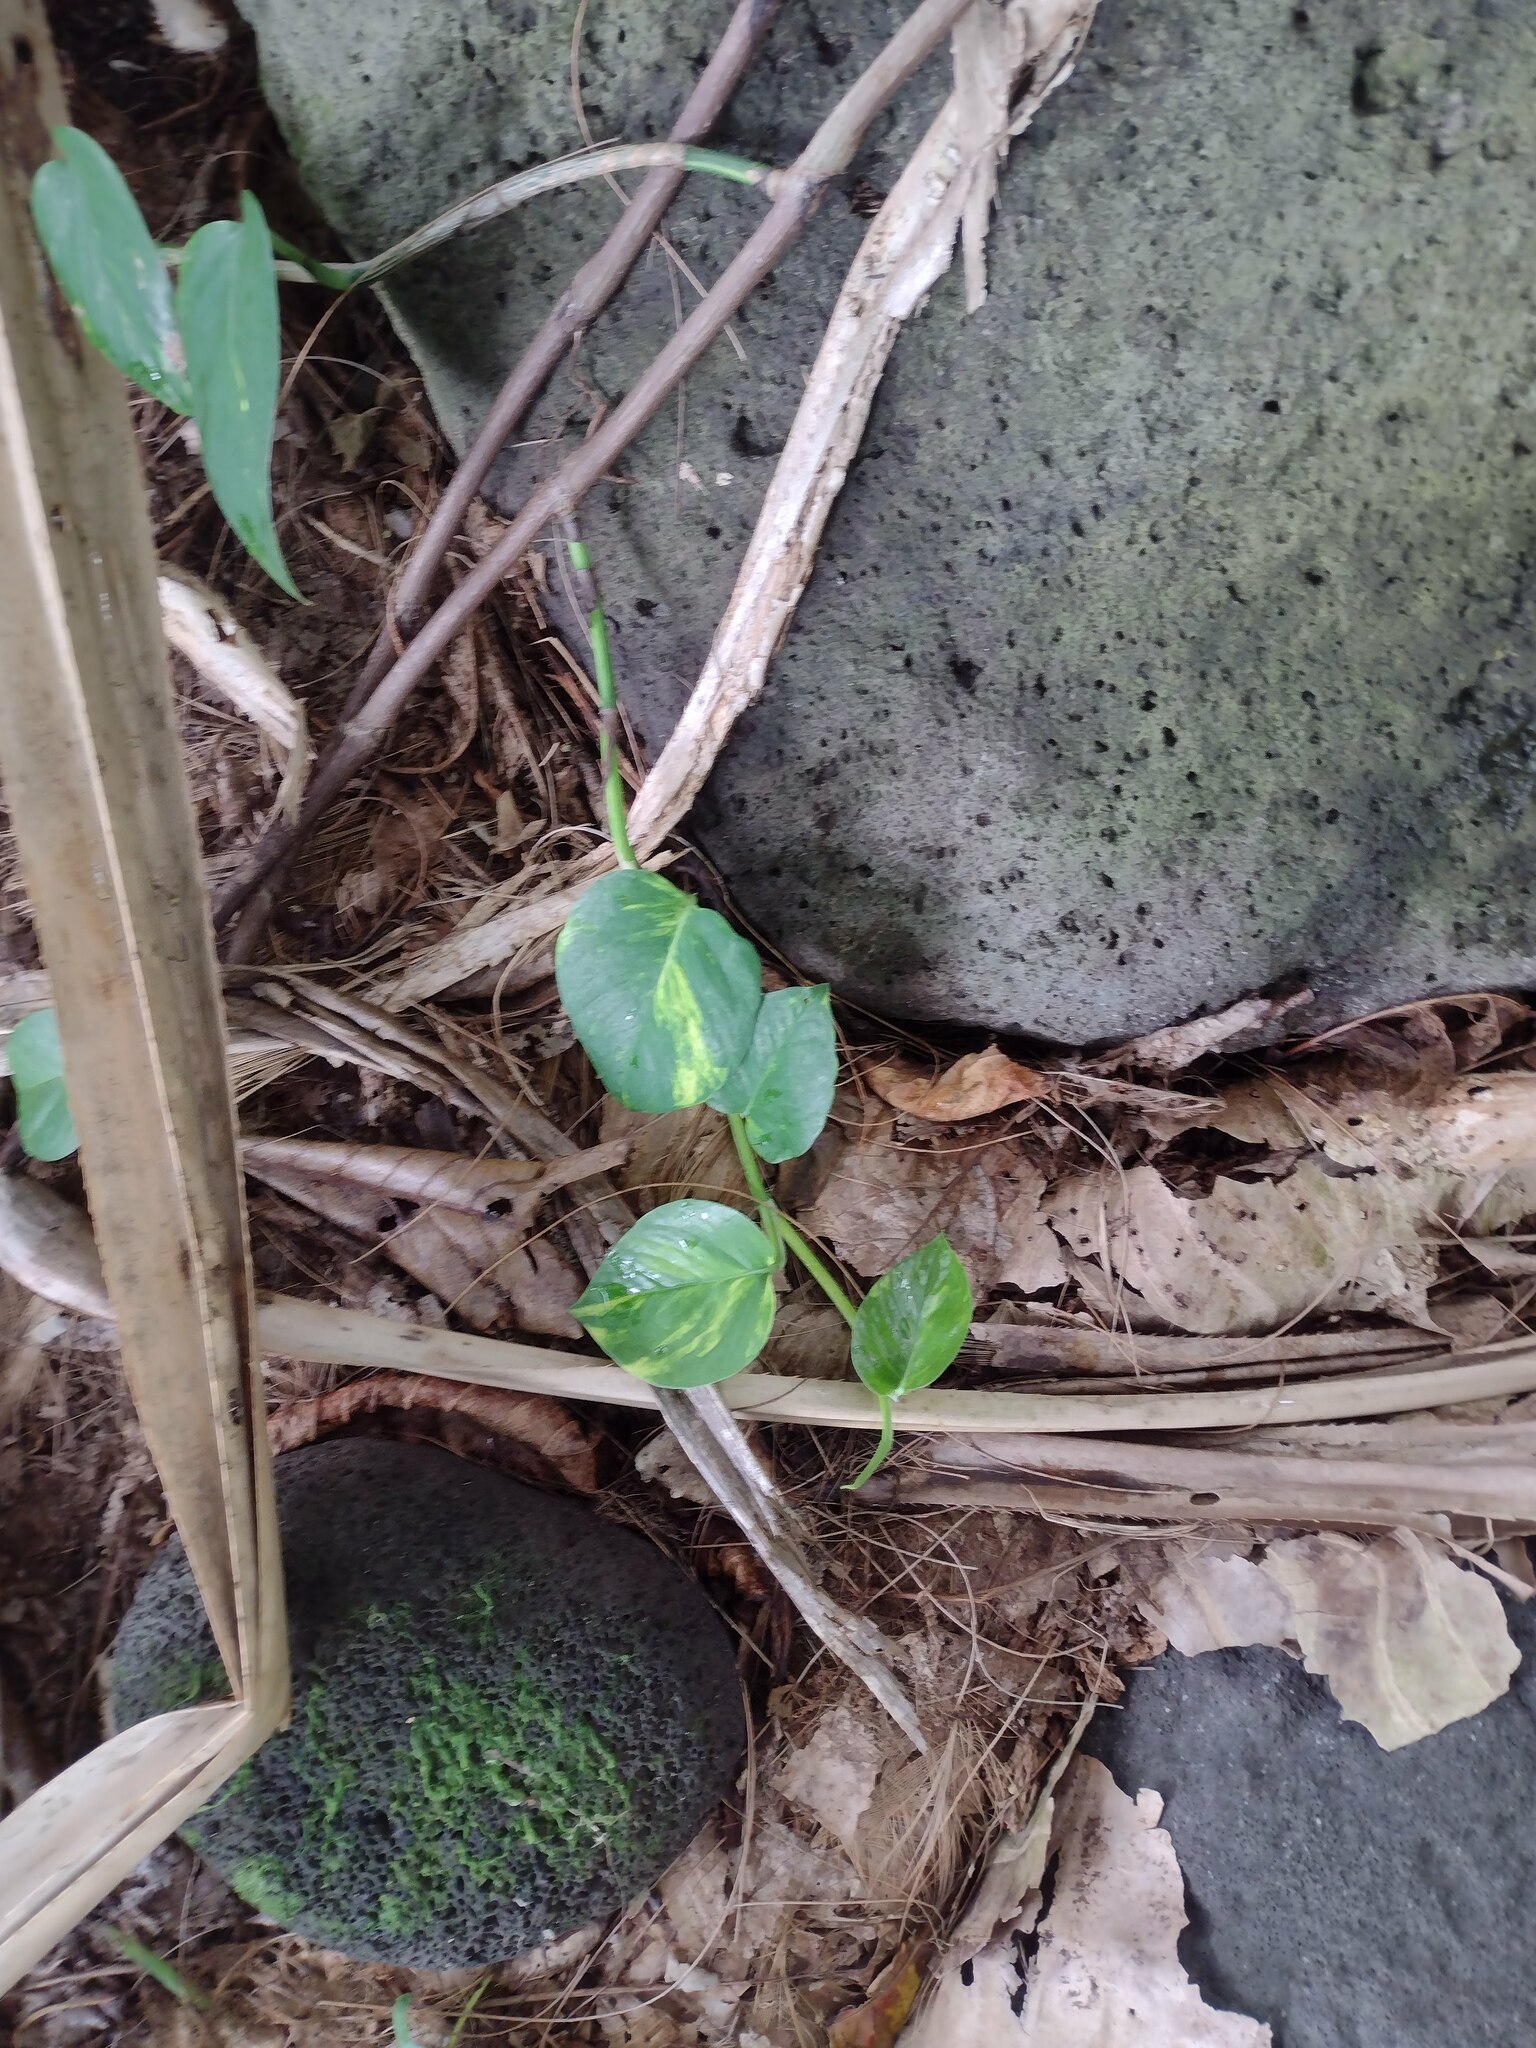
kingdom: Plantae
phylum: Tracheophyta
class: Liliopsida
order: Alismatales
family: Araceae
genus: Epipremnum
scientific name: Epipremnum aureum
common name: Golden hunter's-robe
